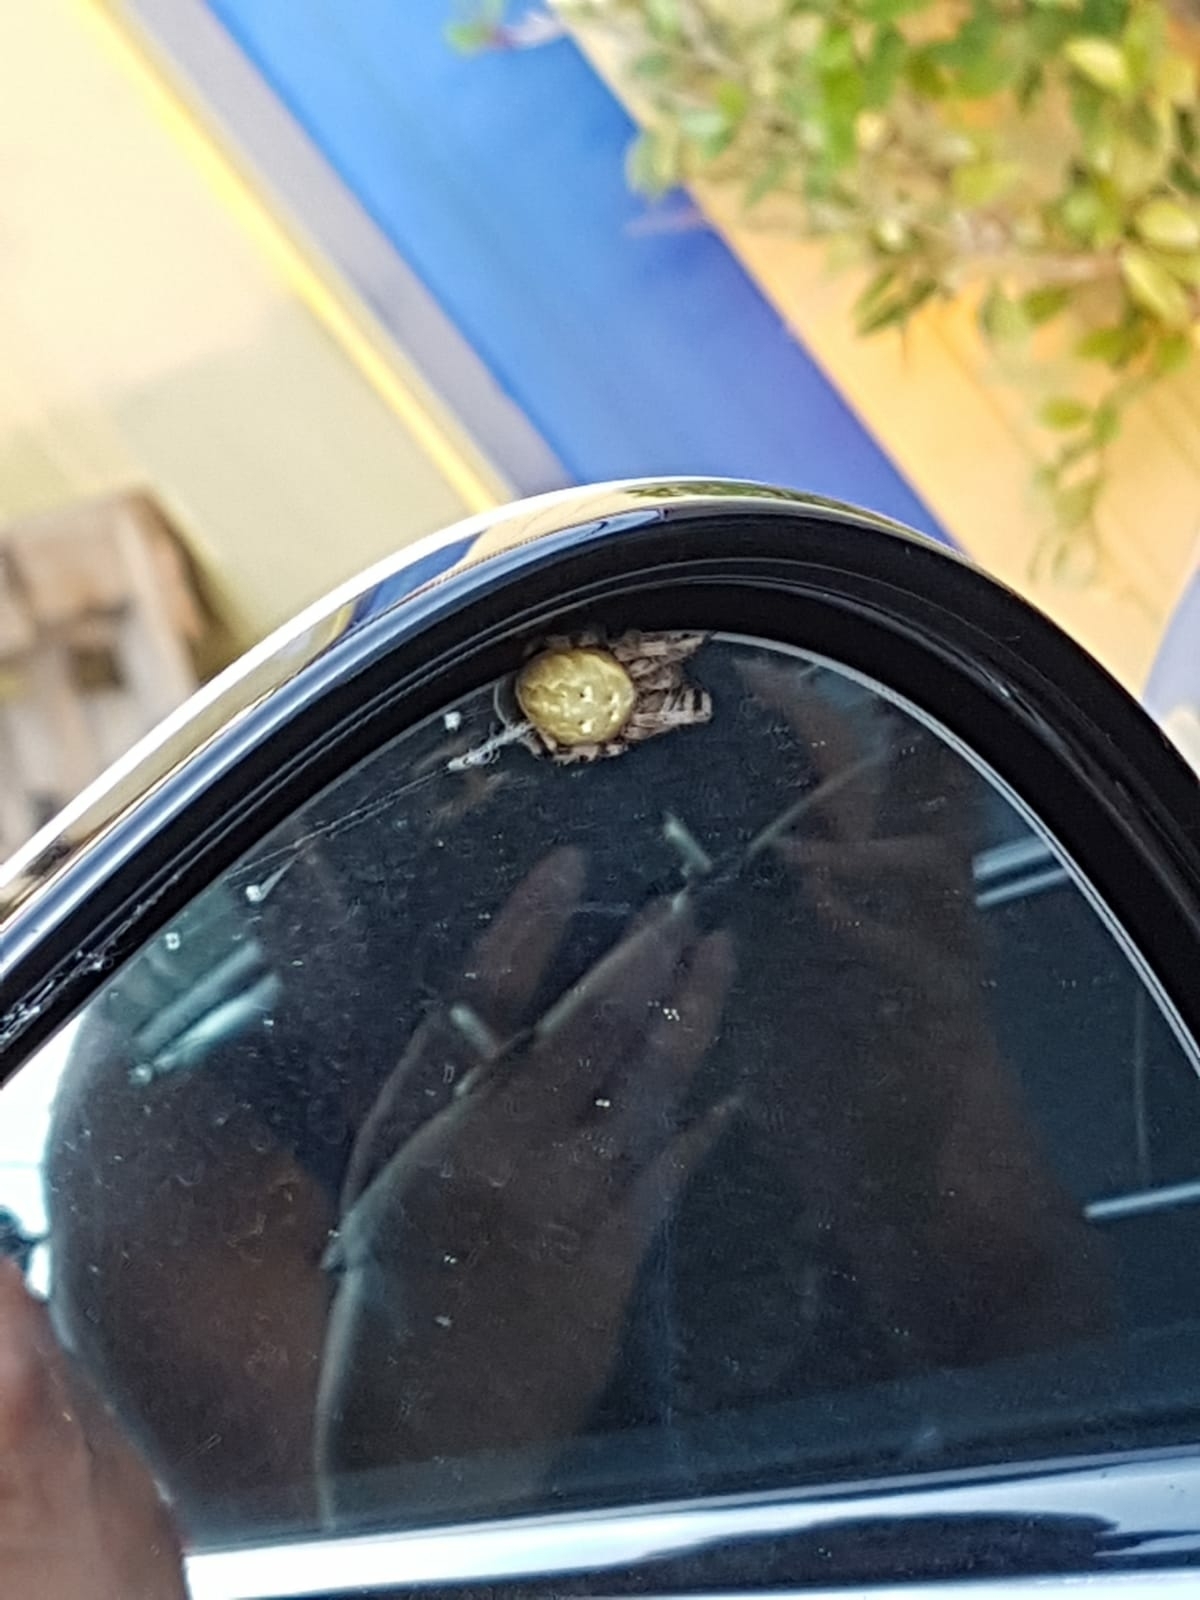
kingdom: Animalia
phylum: Arthropoda
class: Arachnida
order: Araneae
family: Araneidae
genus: Araneus
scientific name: Araneus quadratus
